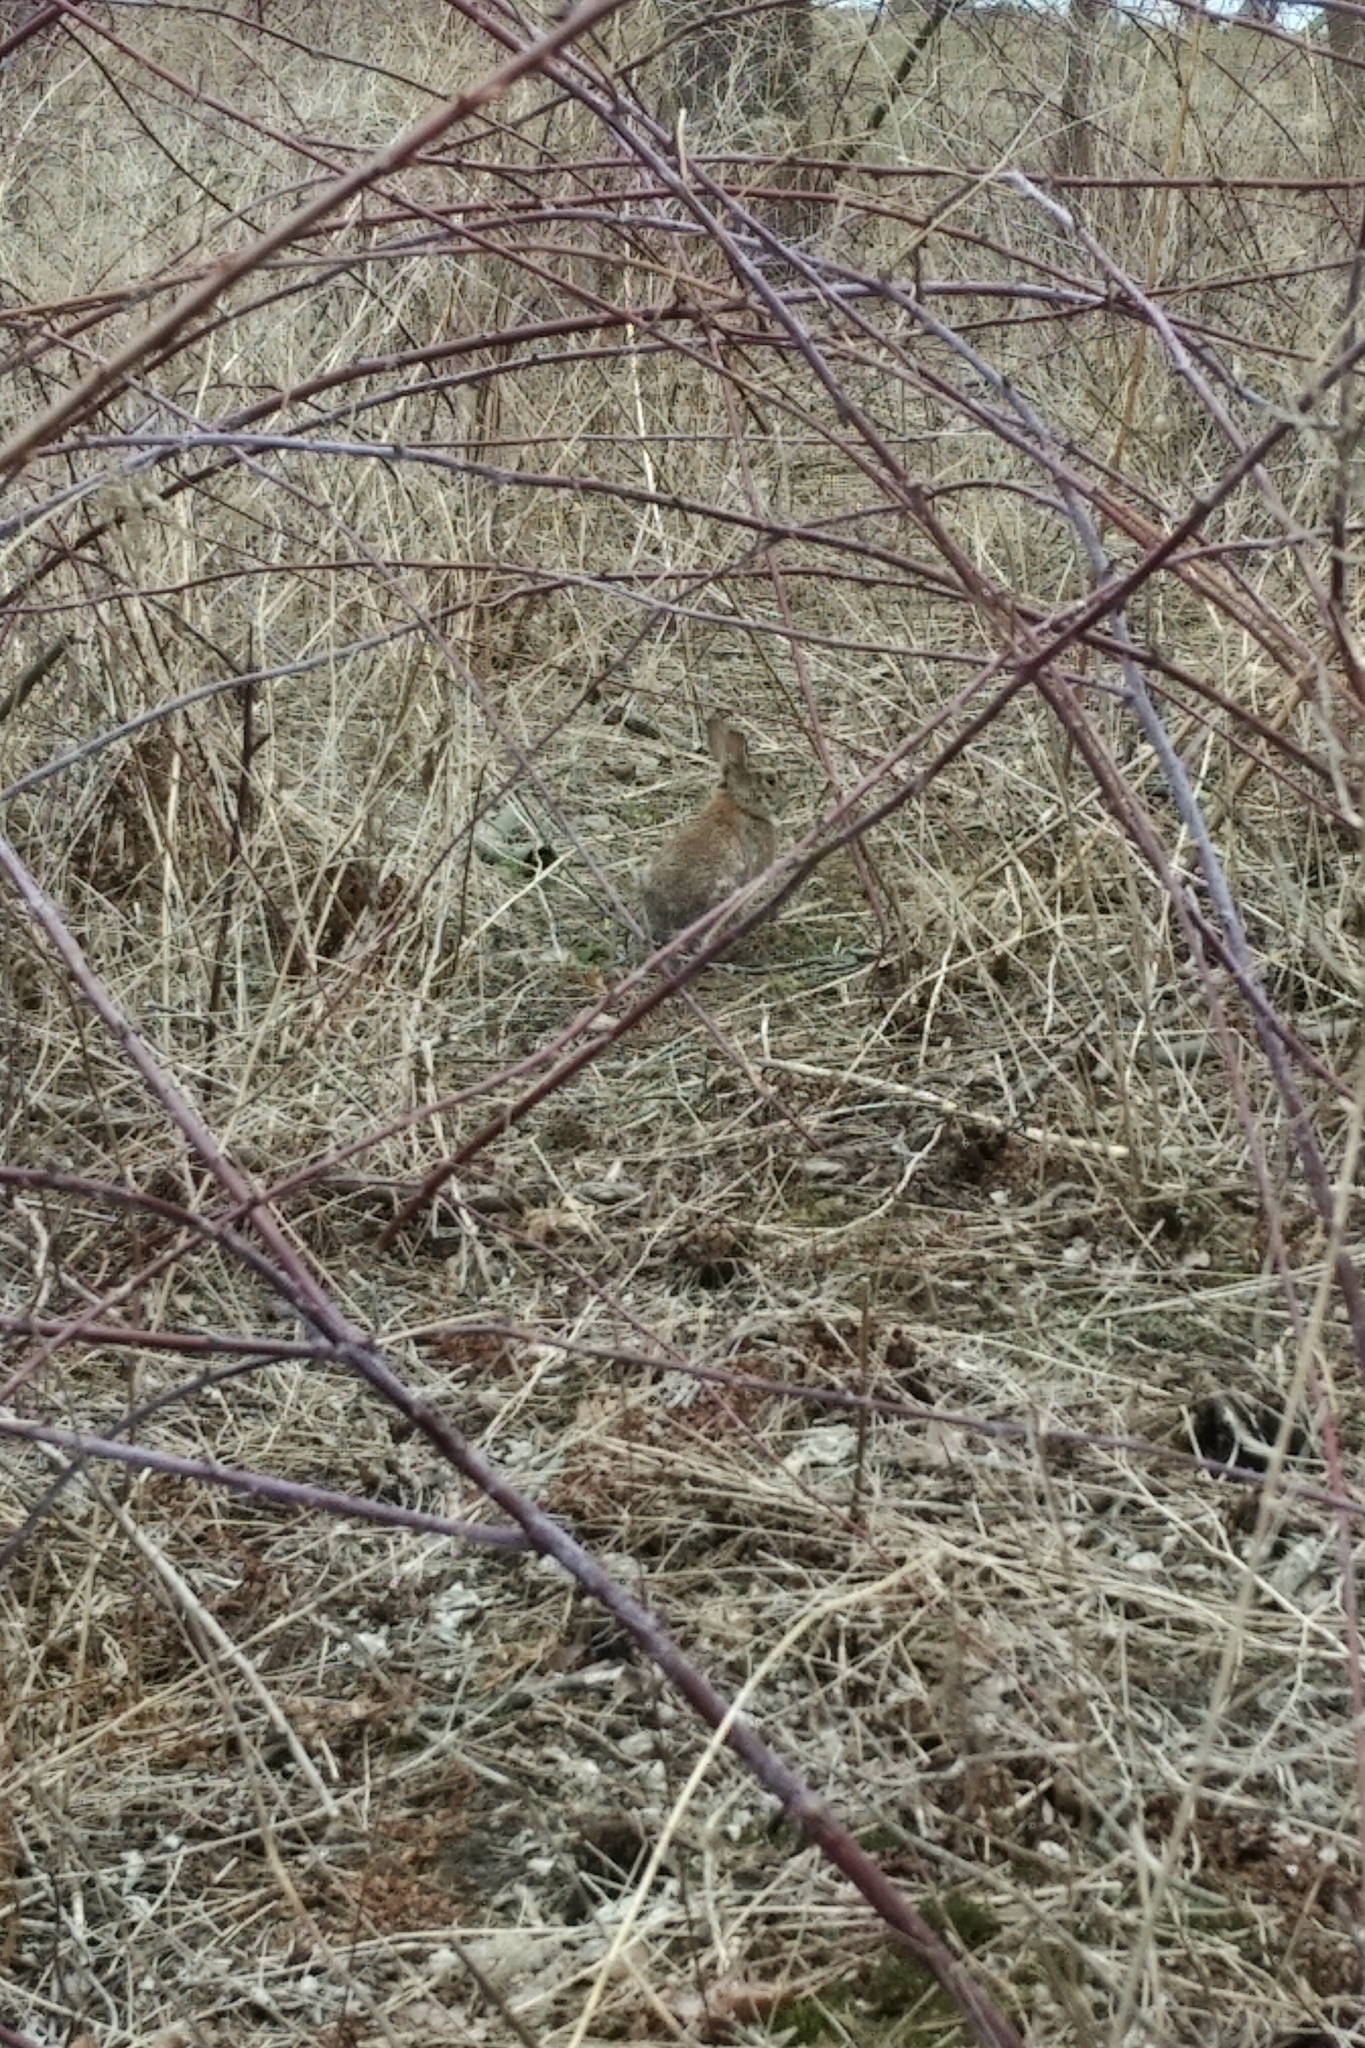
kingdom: Animalia
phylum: Chordata
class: Mammalia
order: Lagomorpha
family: Leporidae
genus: Sylvilagus
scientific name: Sylvilagus floridanus
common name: Eastern cottontail
